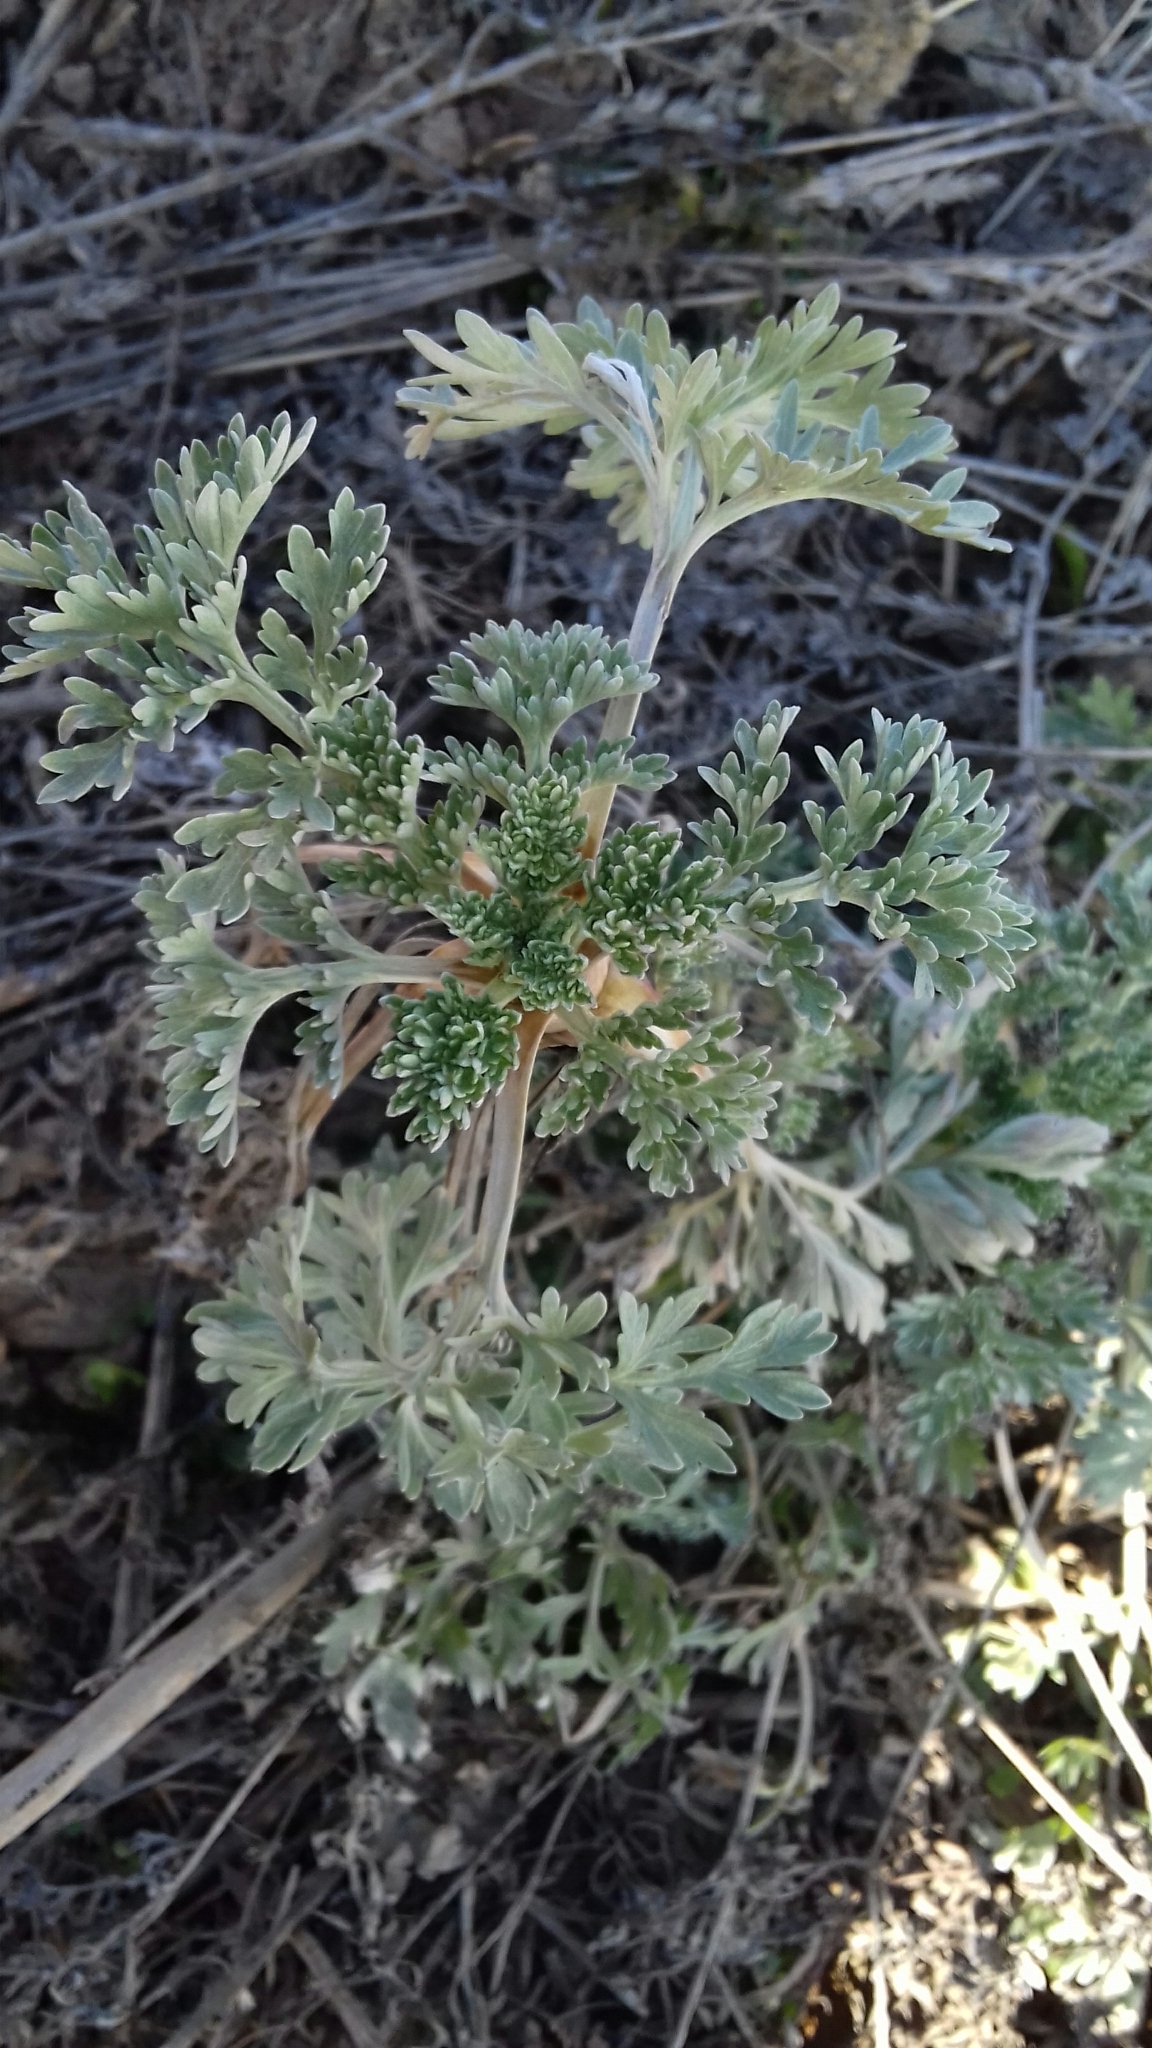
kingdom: Plantae
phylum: Tracheophyta
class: Magnoliopsida
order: Asterales
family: Asteraceae
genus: Artemisia
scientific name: Artemisia absinthium
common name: Wormwood
